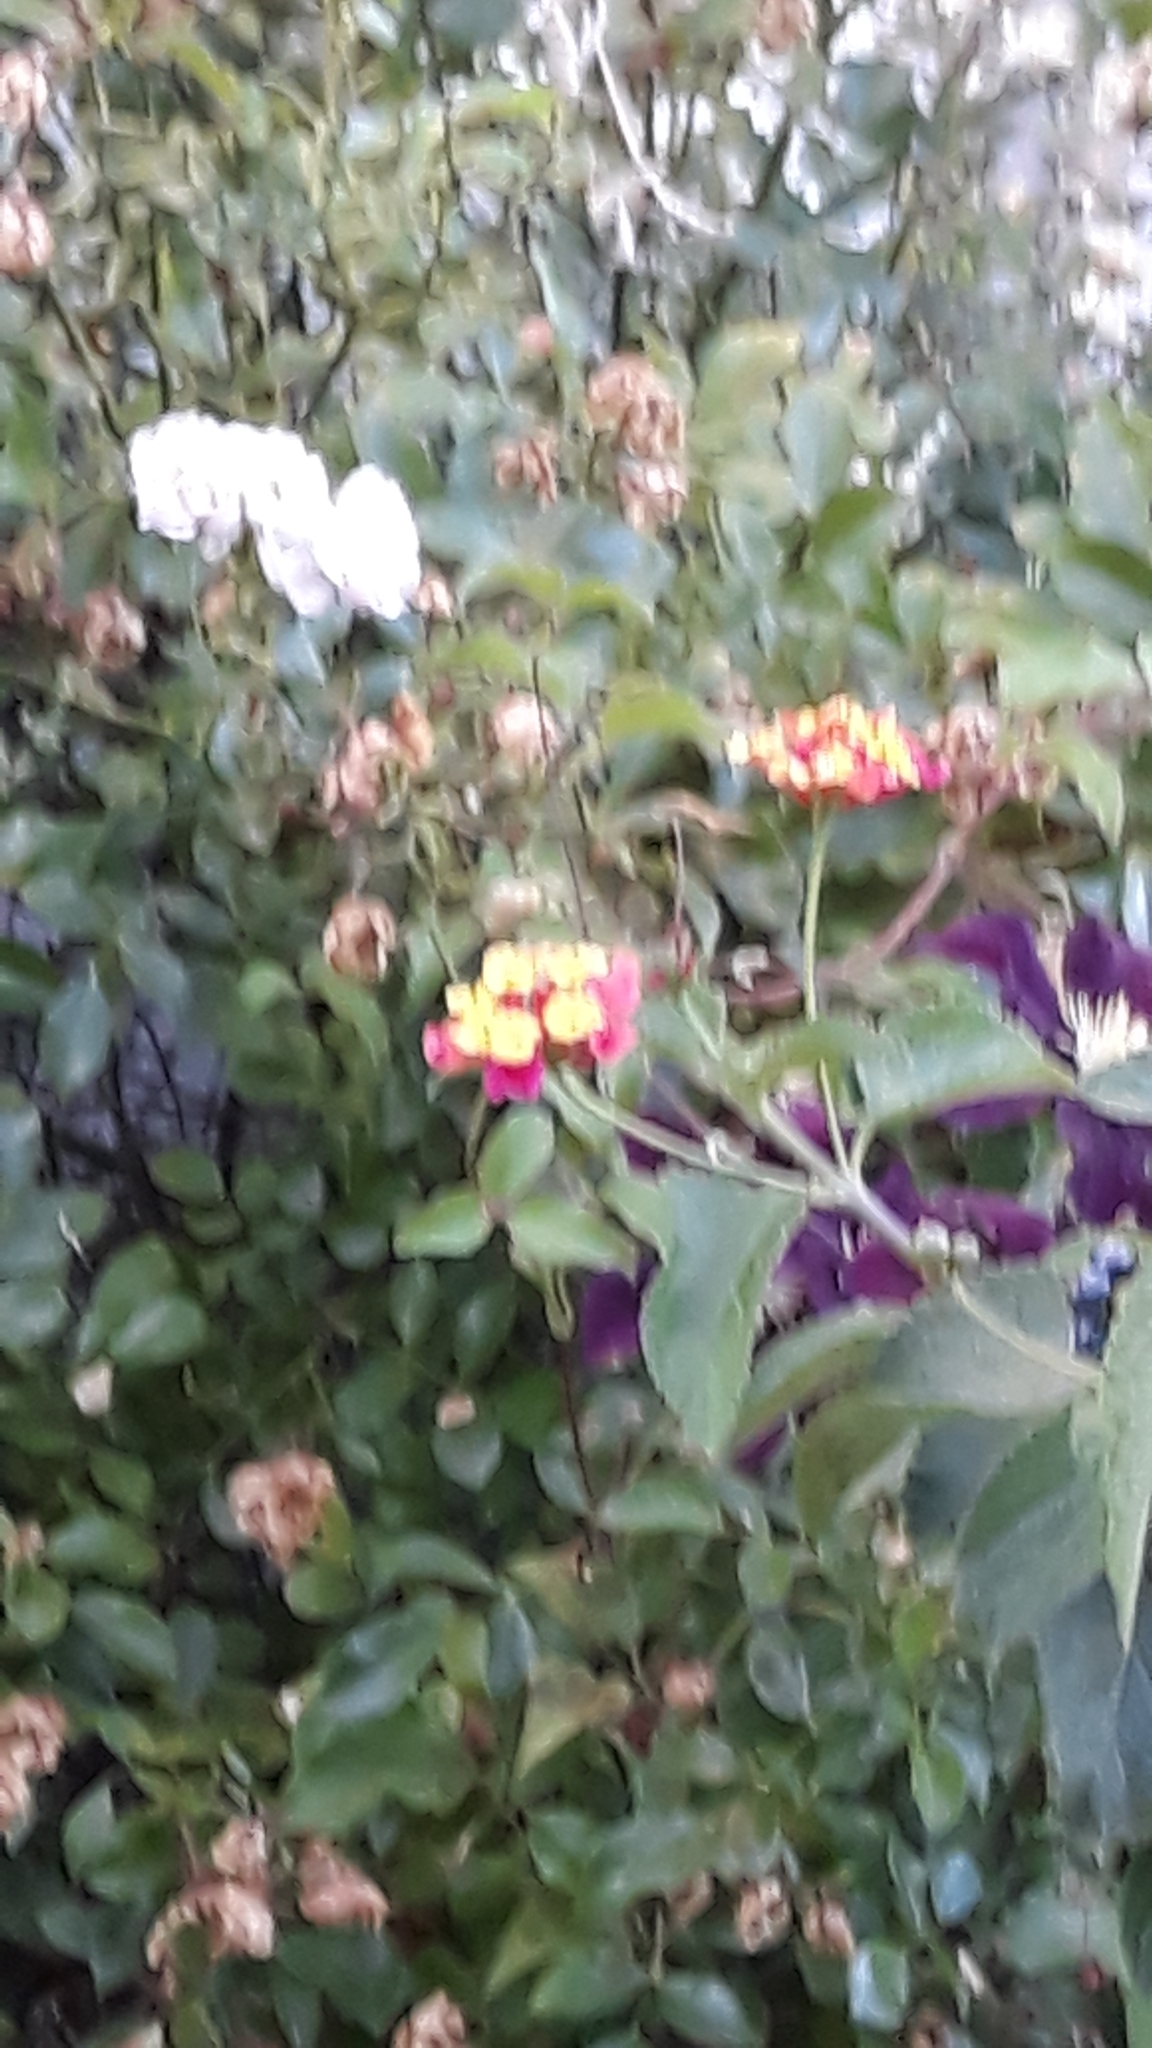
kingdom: Animalia
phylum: Arthropoda
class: Insecta
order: Lepidoptera
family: Sphingidae
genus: Macroglossum
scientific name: Macroglossum stellatarum
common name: Humming-bird hawk-moth
